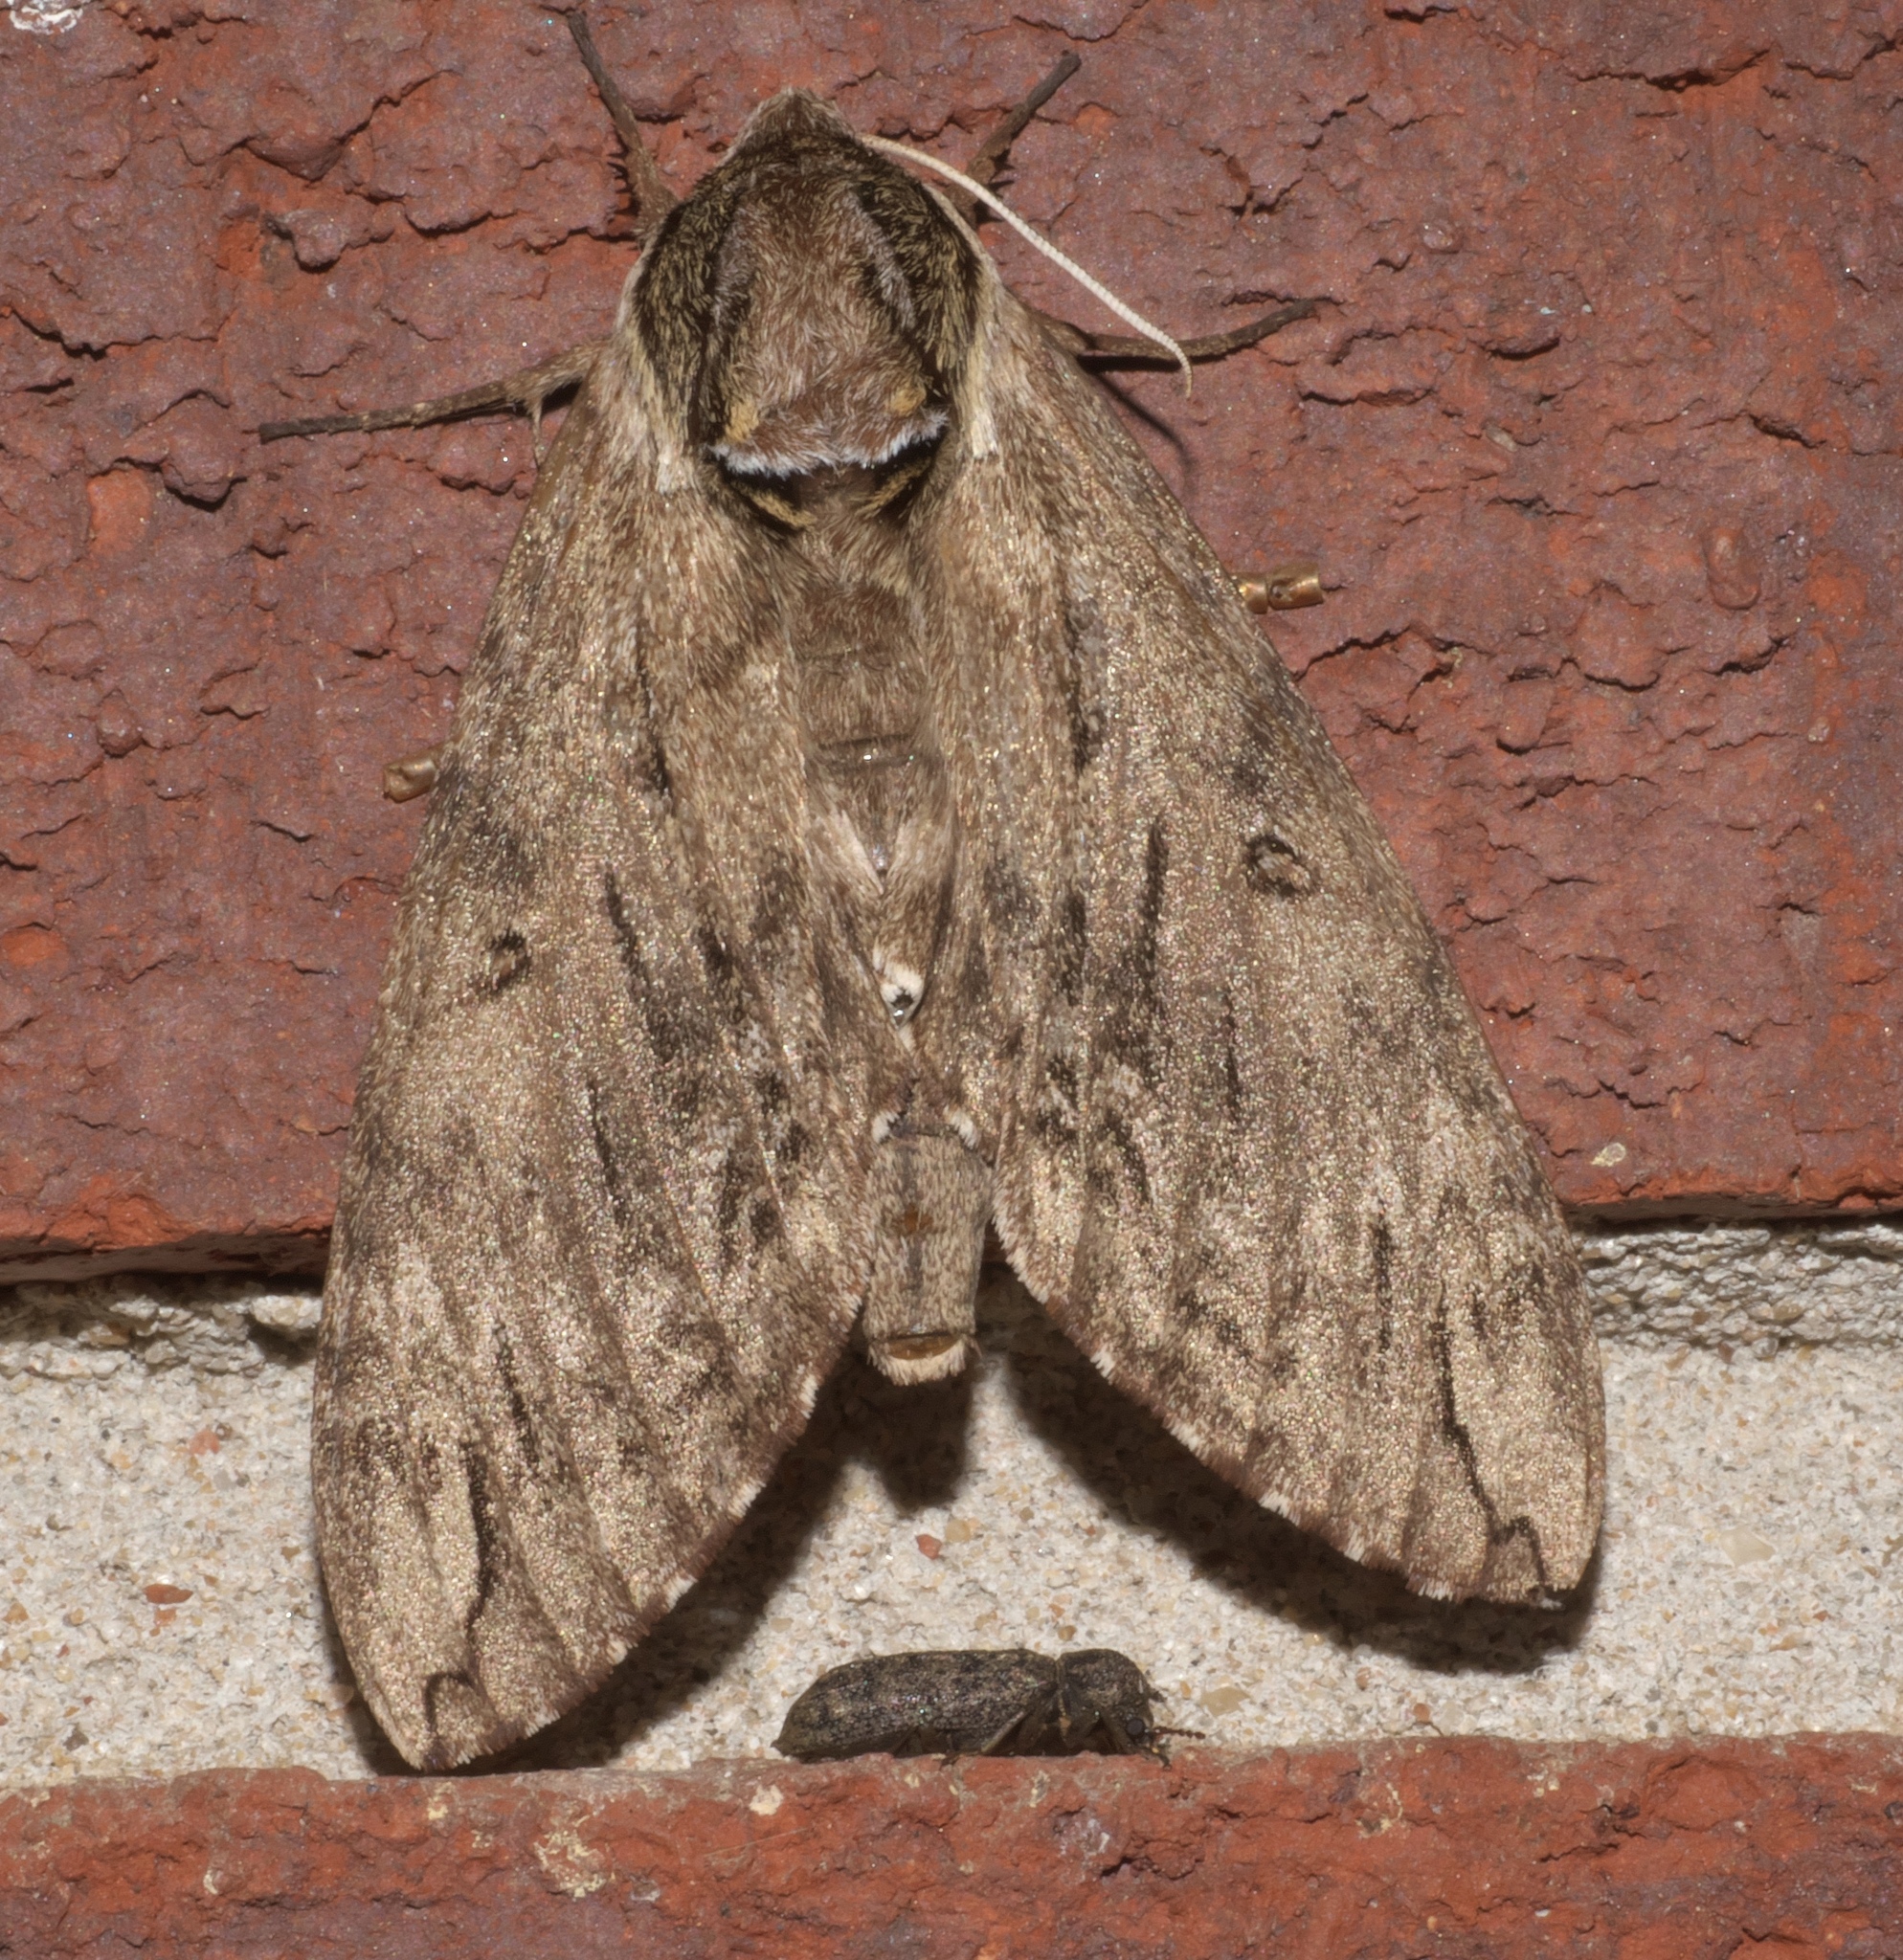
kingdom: Animalia
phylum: Arthropoda
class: Insecta
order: Lepidoptera
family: Sphingidae
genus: Ceratomia
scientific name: Ceratomia catalpae
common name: Catalpa hornworm
